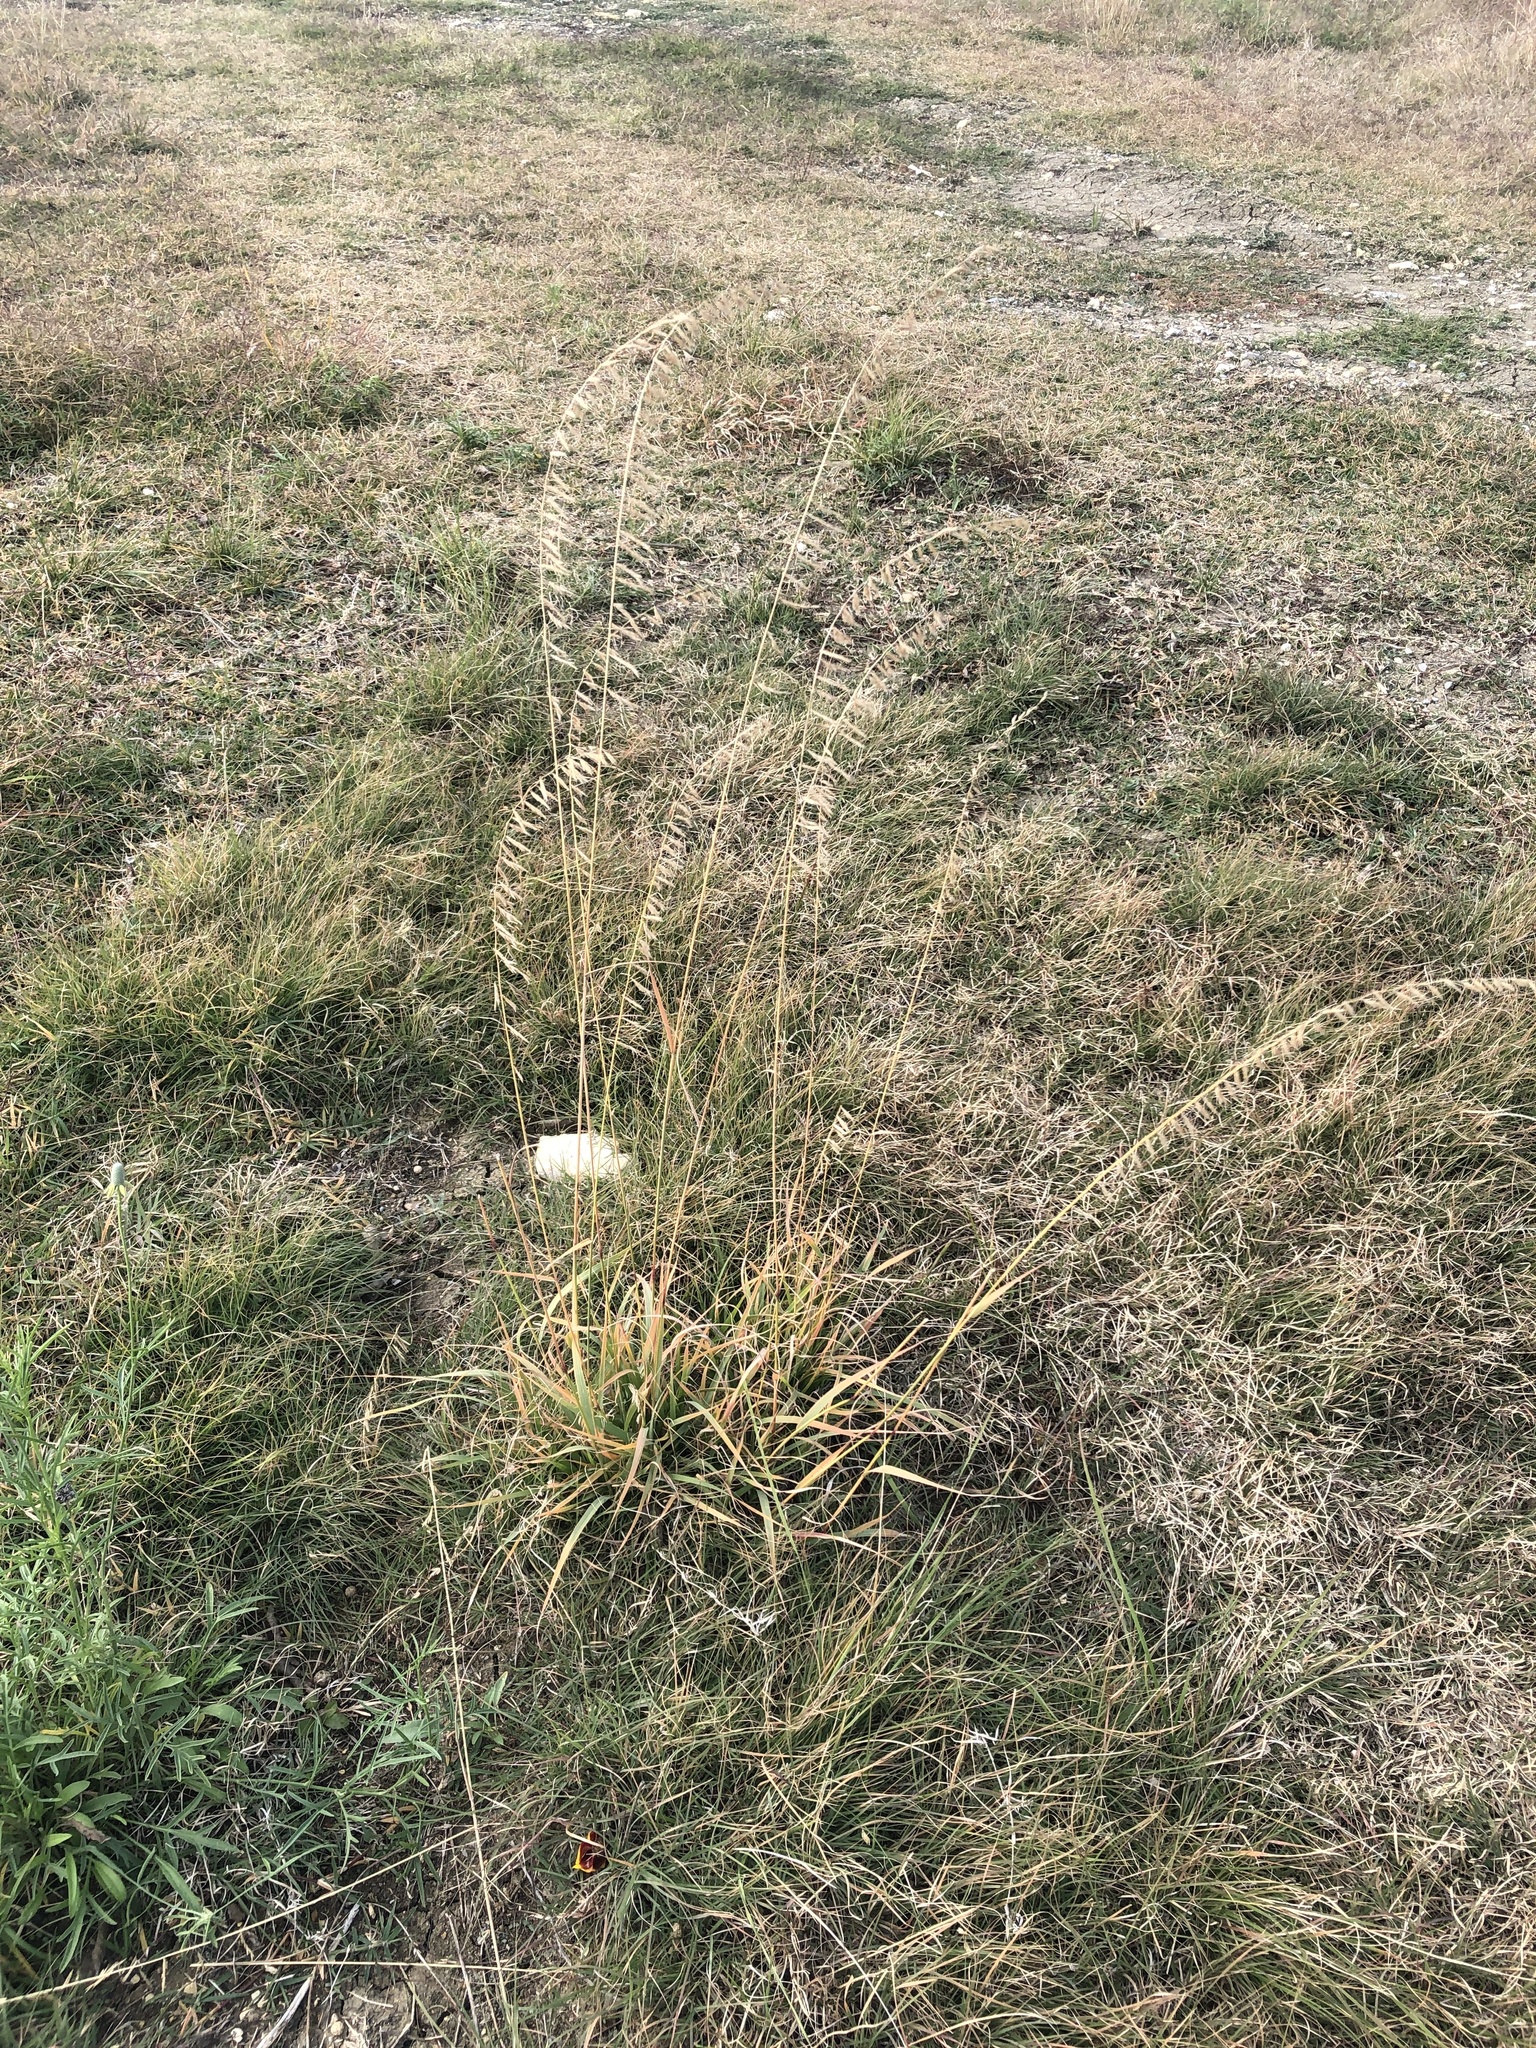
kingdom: Plantae
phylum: Tracheophyta
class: Liliopsida
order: Poales
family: Poaceae
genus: Bouteloua
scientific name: Bouteloua curtipendula
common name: Side-oats grama
